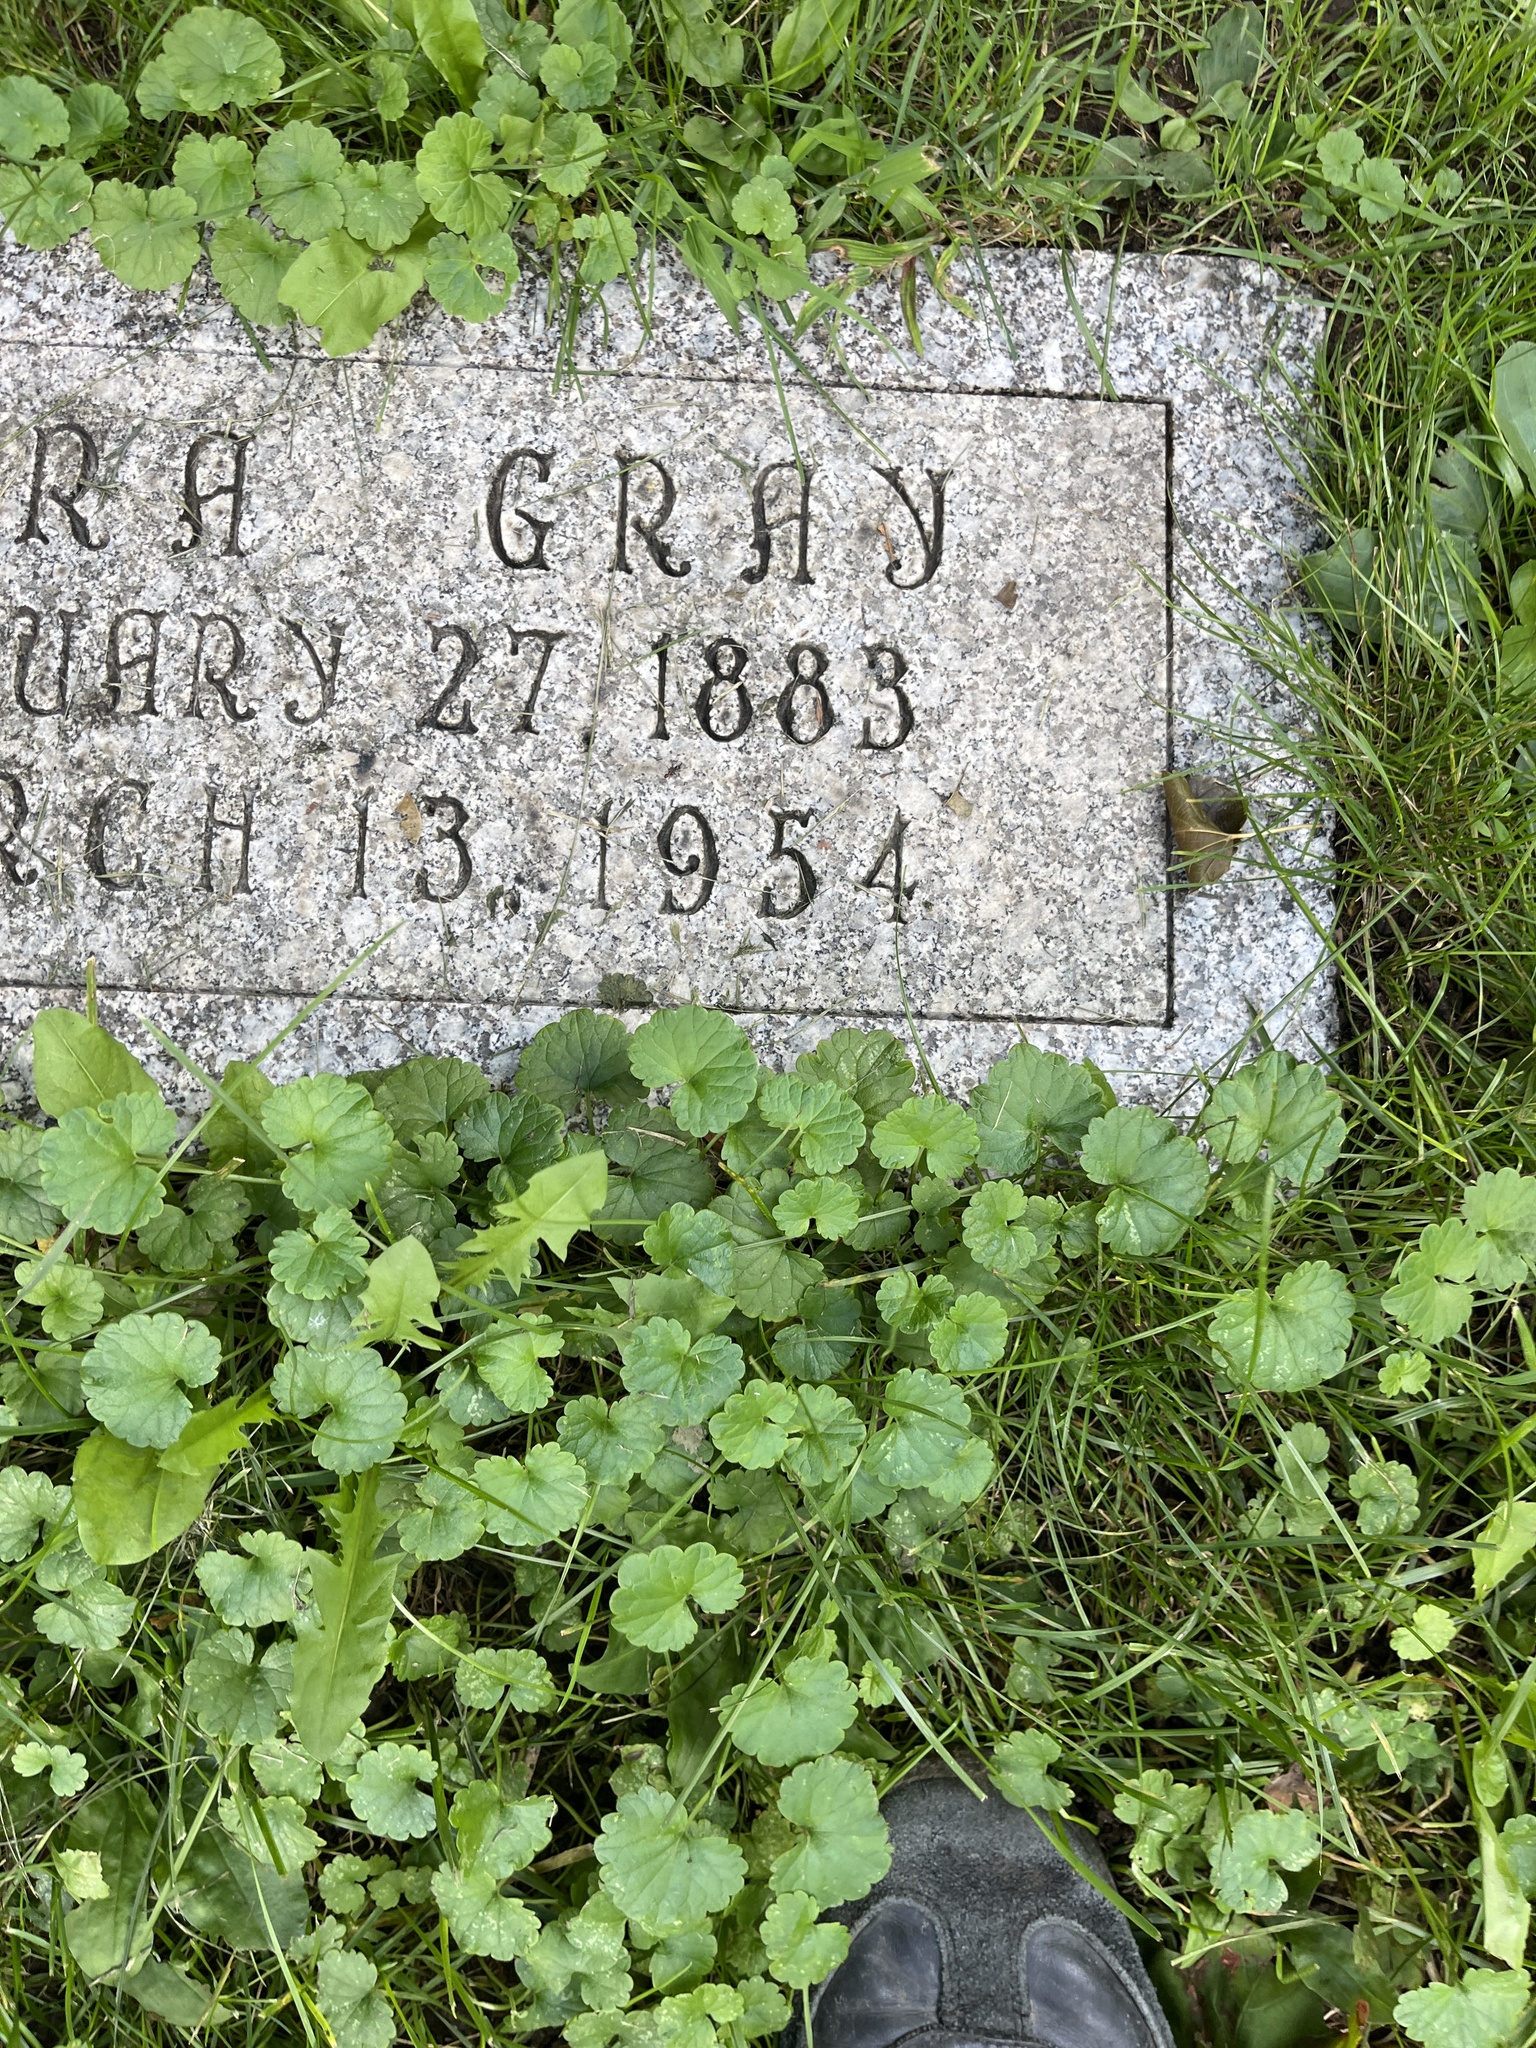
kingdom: Plantae
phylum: Tracheophyta
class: Magnoliopsida
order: Lamiales
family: Lamiaceae
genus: Glechoma
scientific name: Glechoma hederacea
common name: Ground ivy
